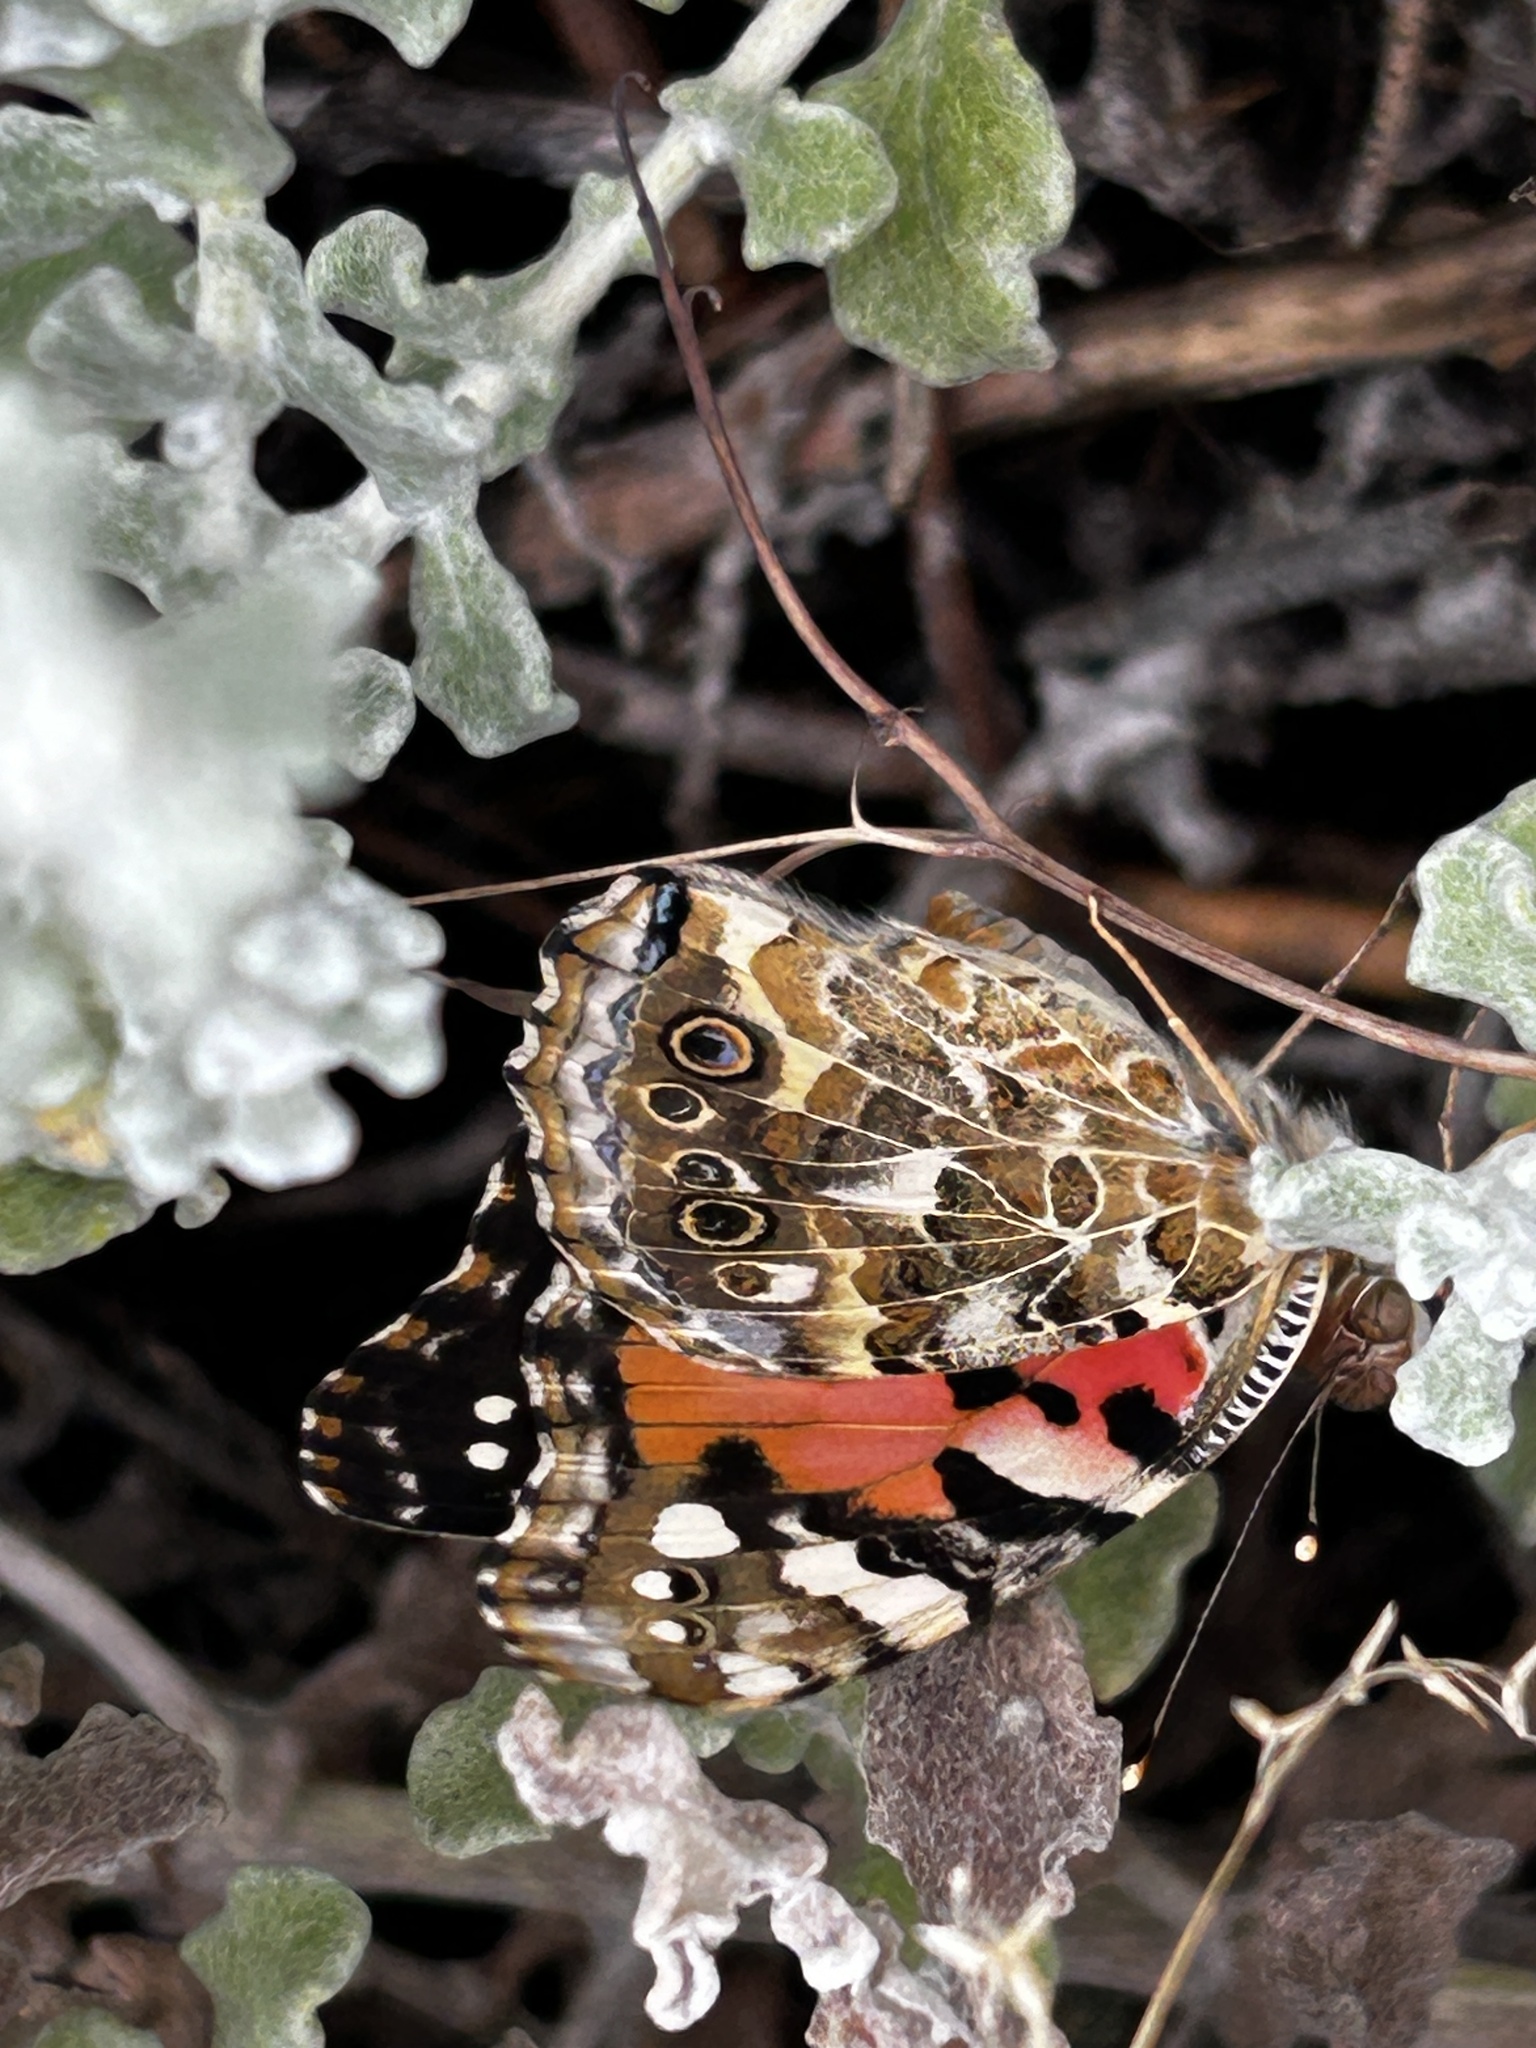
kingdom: Animalia
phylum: Arthropoda
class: Insecta
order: Lepidoptera
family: Nymphalidae
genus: Vanessa
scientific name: Vanessa cardui
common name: Painted lady
